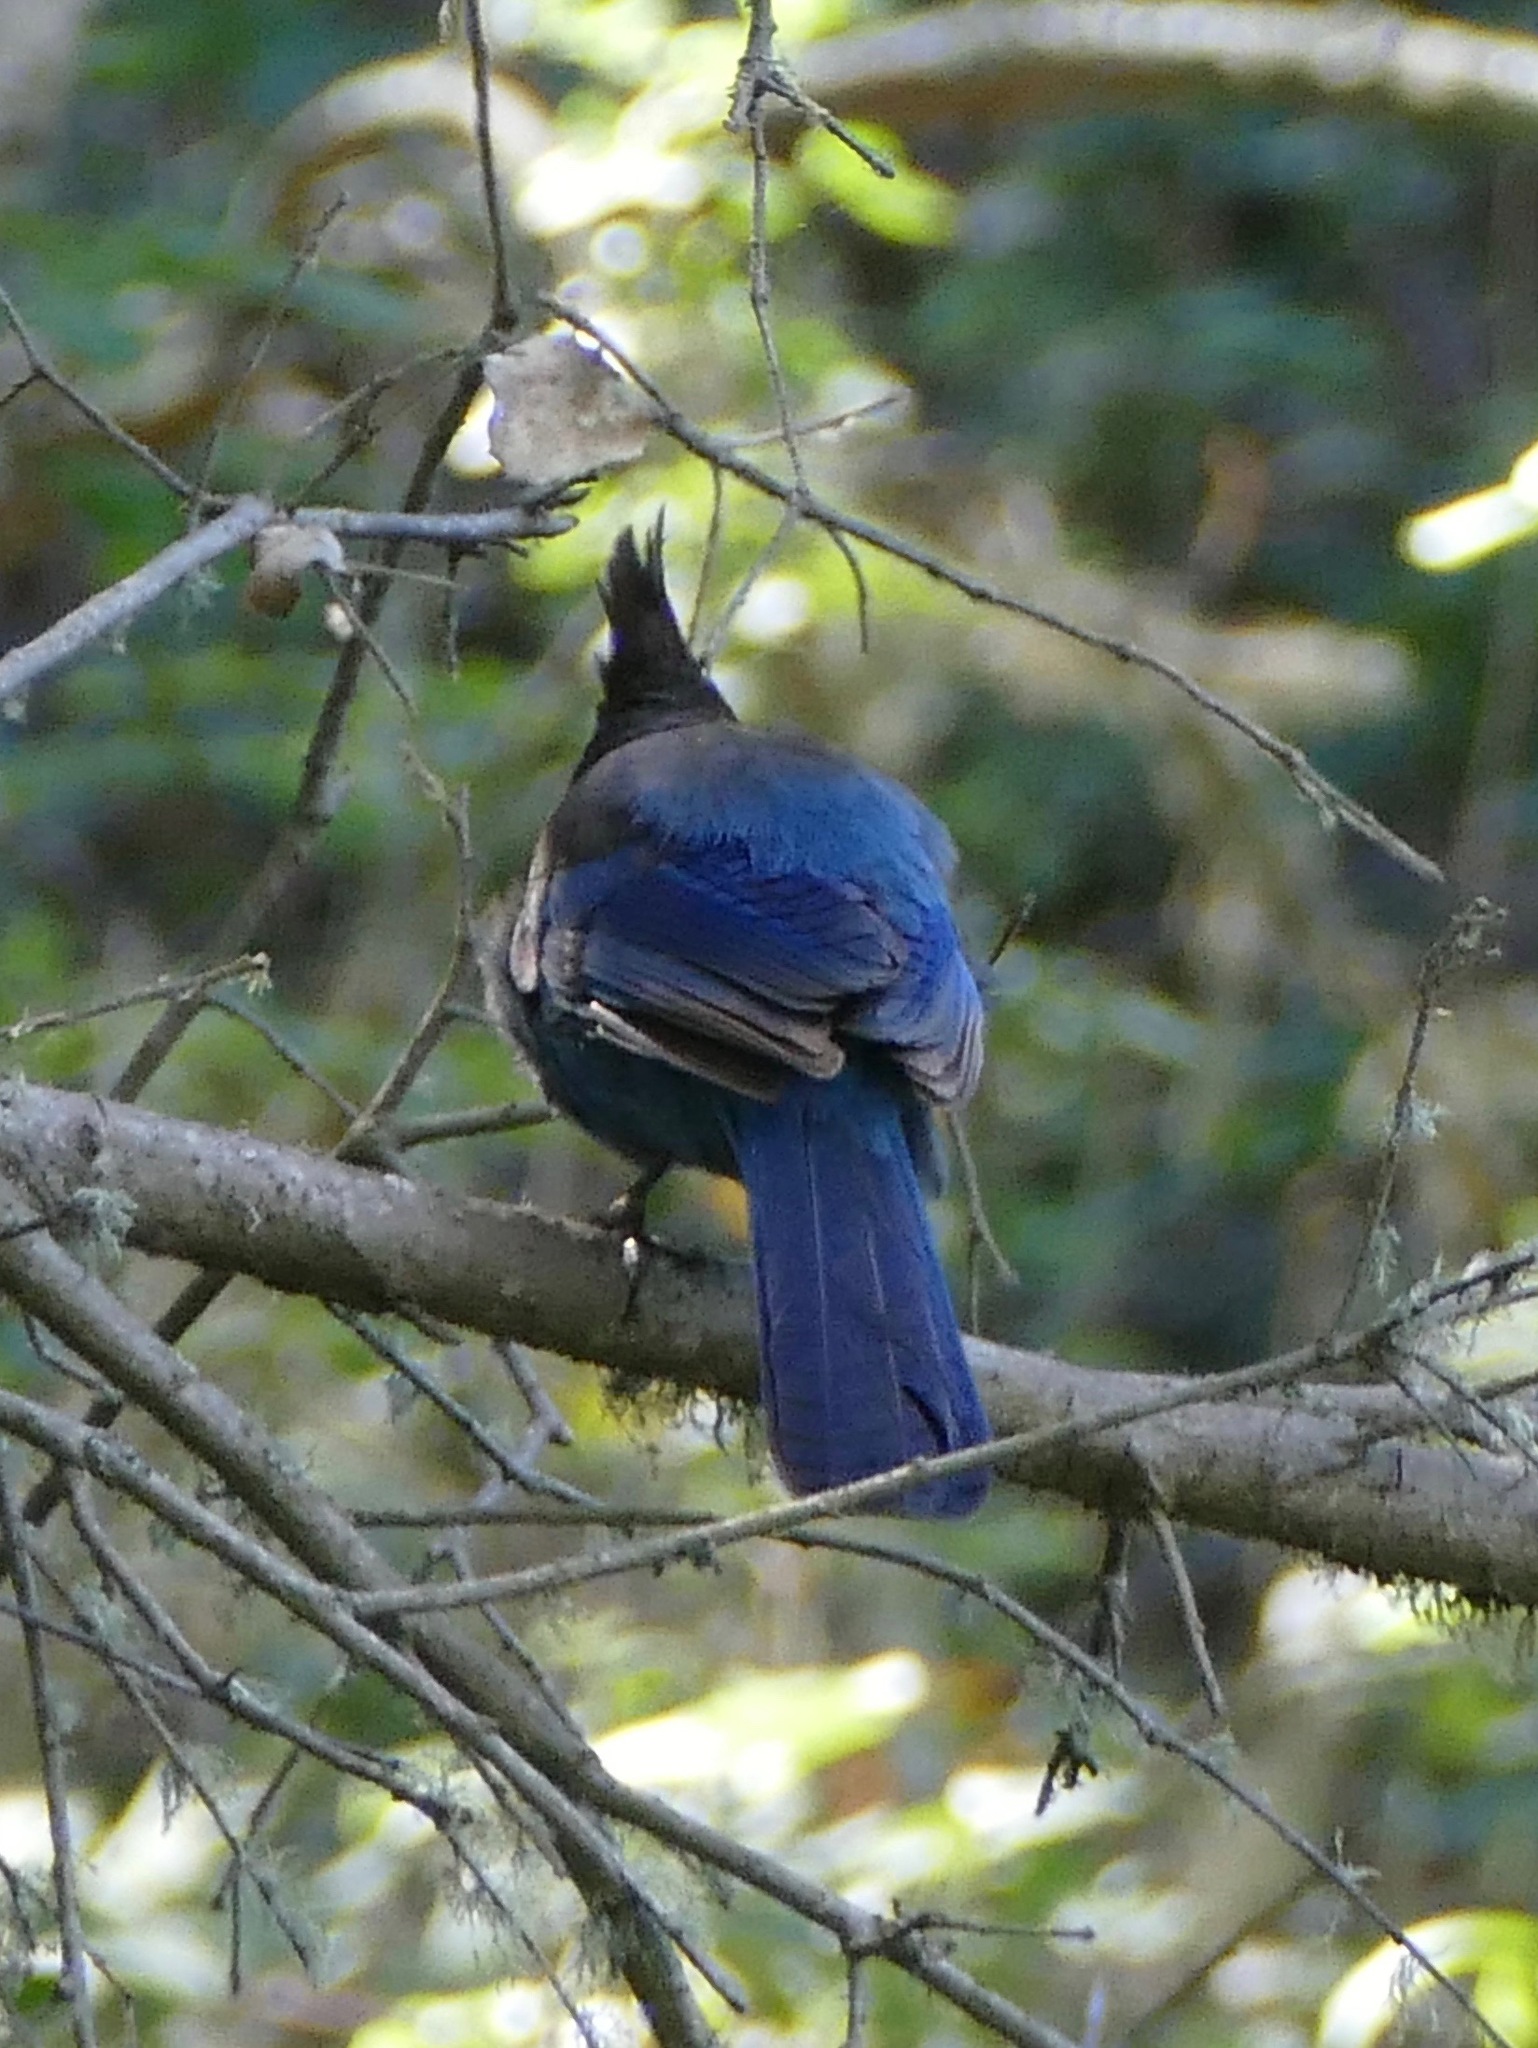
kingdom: Animalia
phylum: Chordata
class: Aves
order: Passeriformes
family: Corvidae
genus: Cyanocitta
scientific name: Cyanocitta stelleri
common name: Steller's jay
